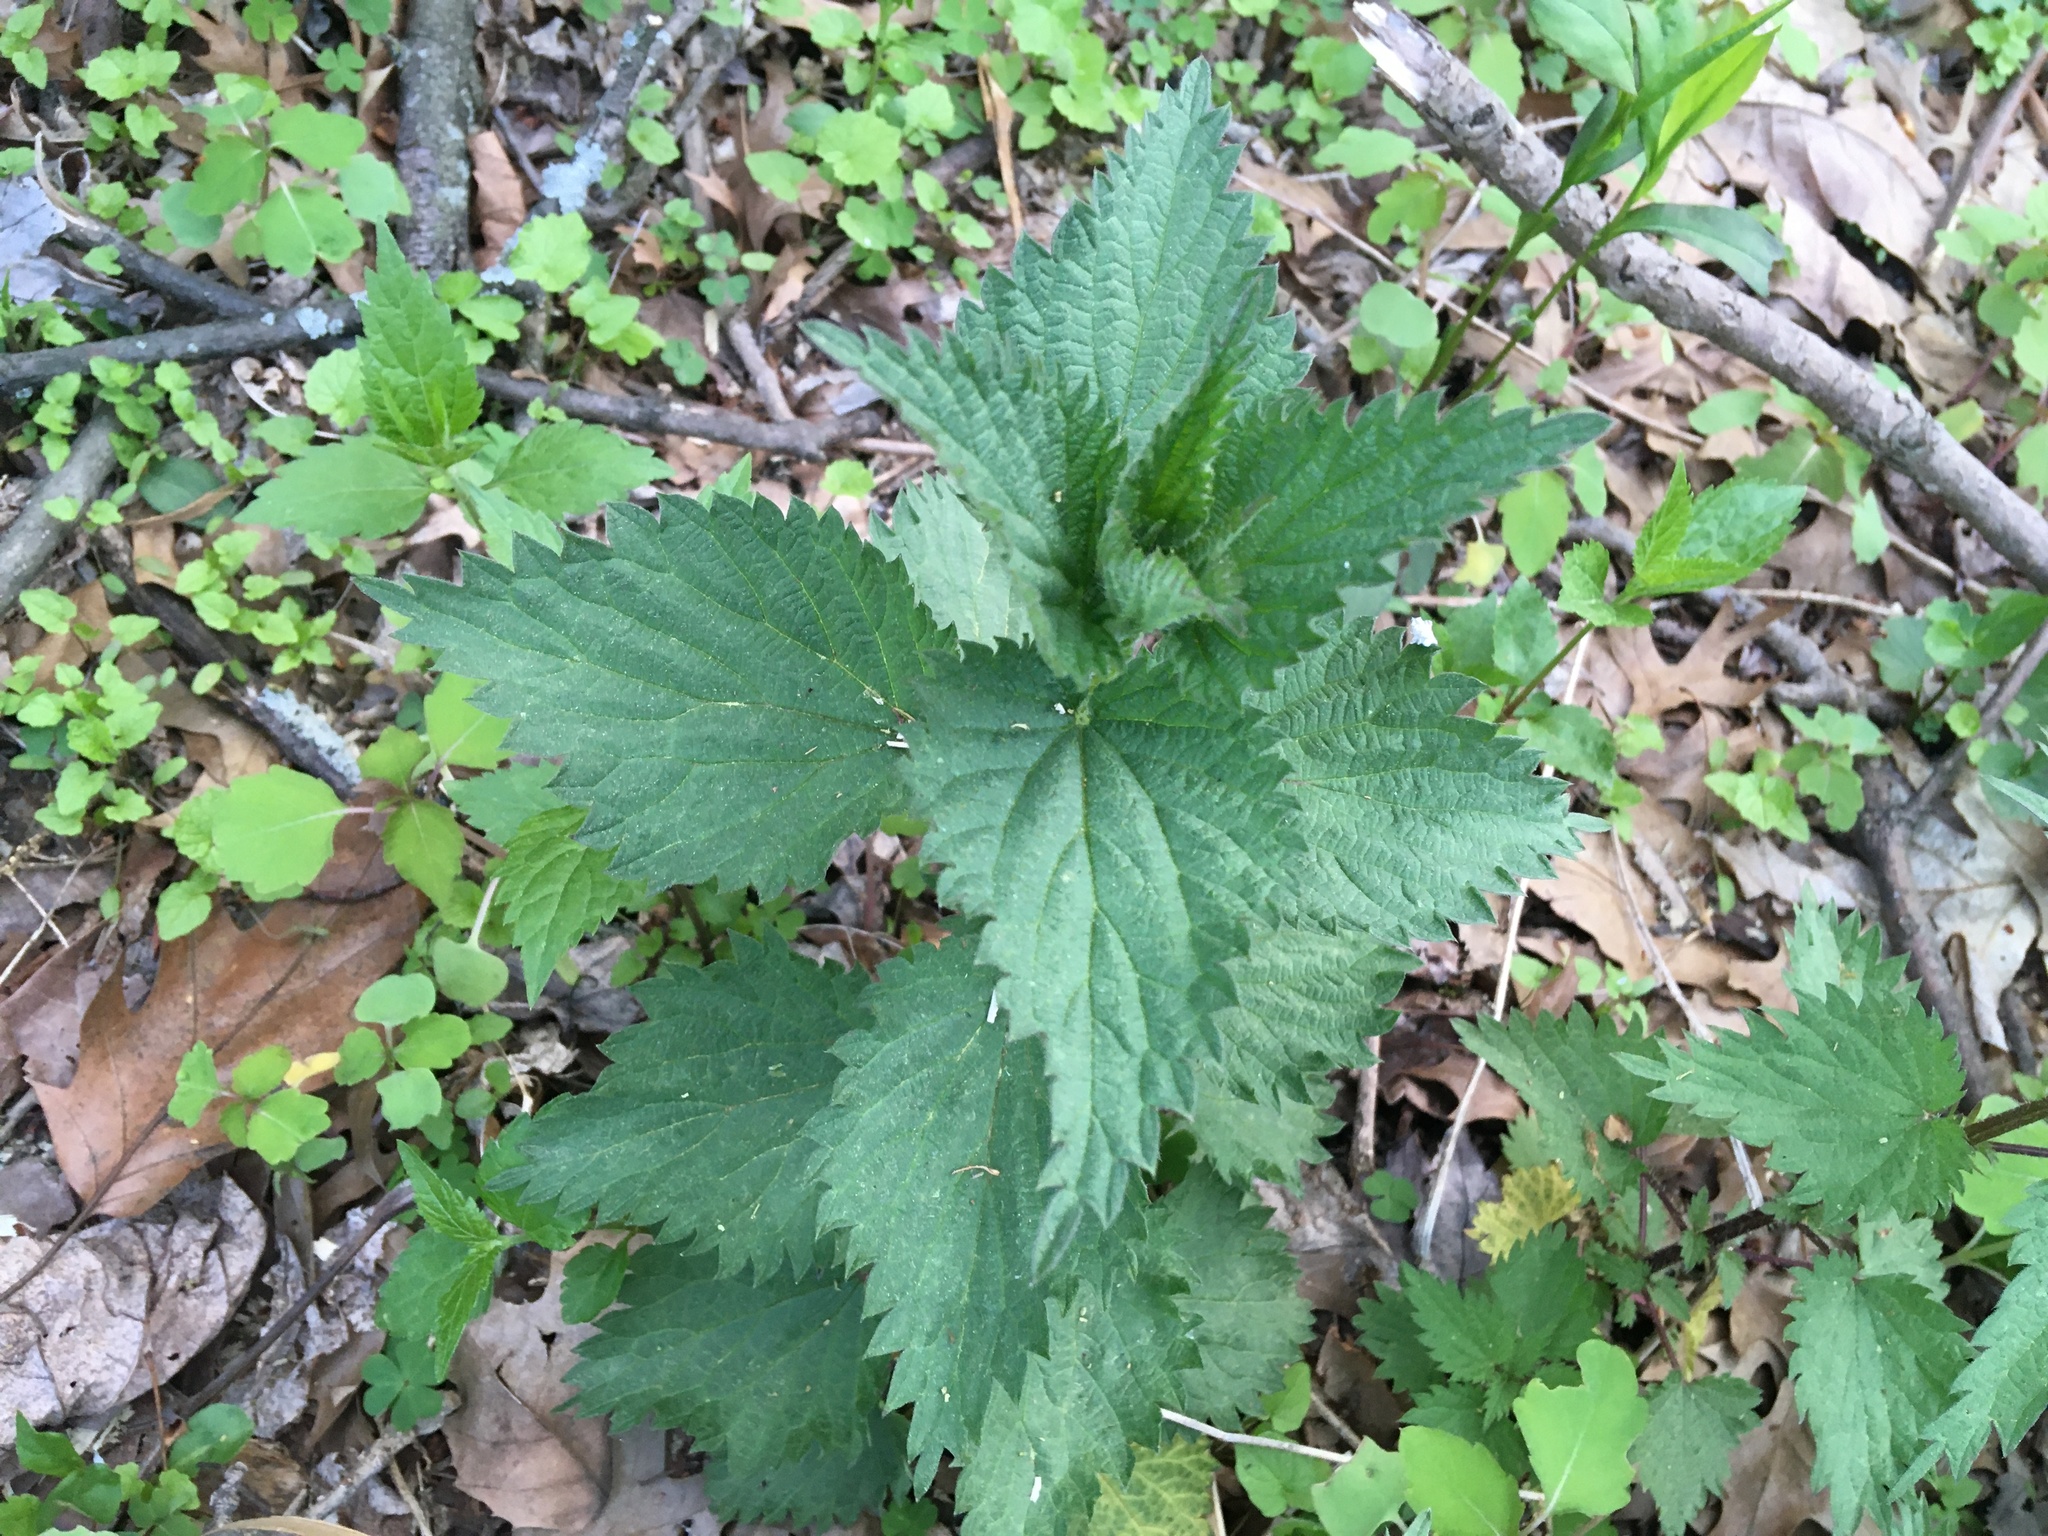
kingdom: Plantae
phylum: Tracheophyta
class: Magnoliopsida
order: Rosales
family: Urticaceae
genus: Urtica
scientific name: Urtica dioica
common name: Common nettle
